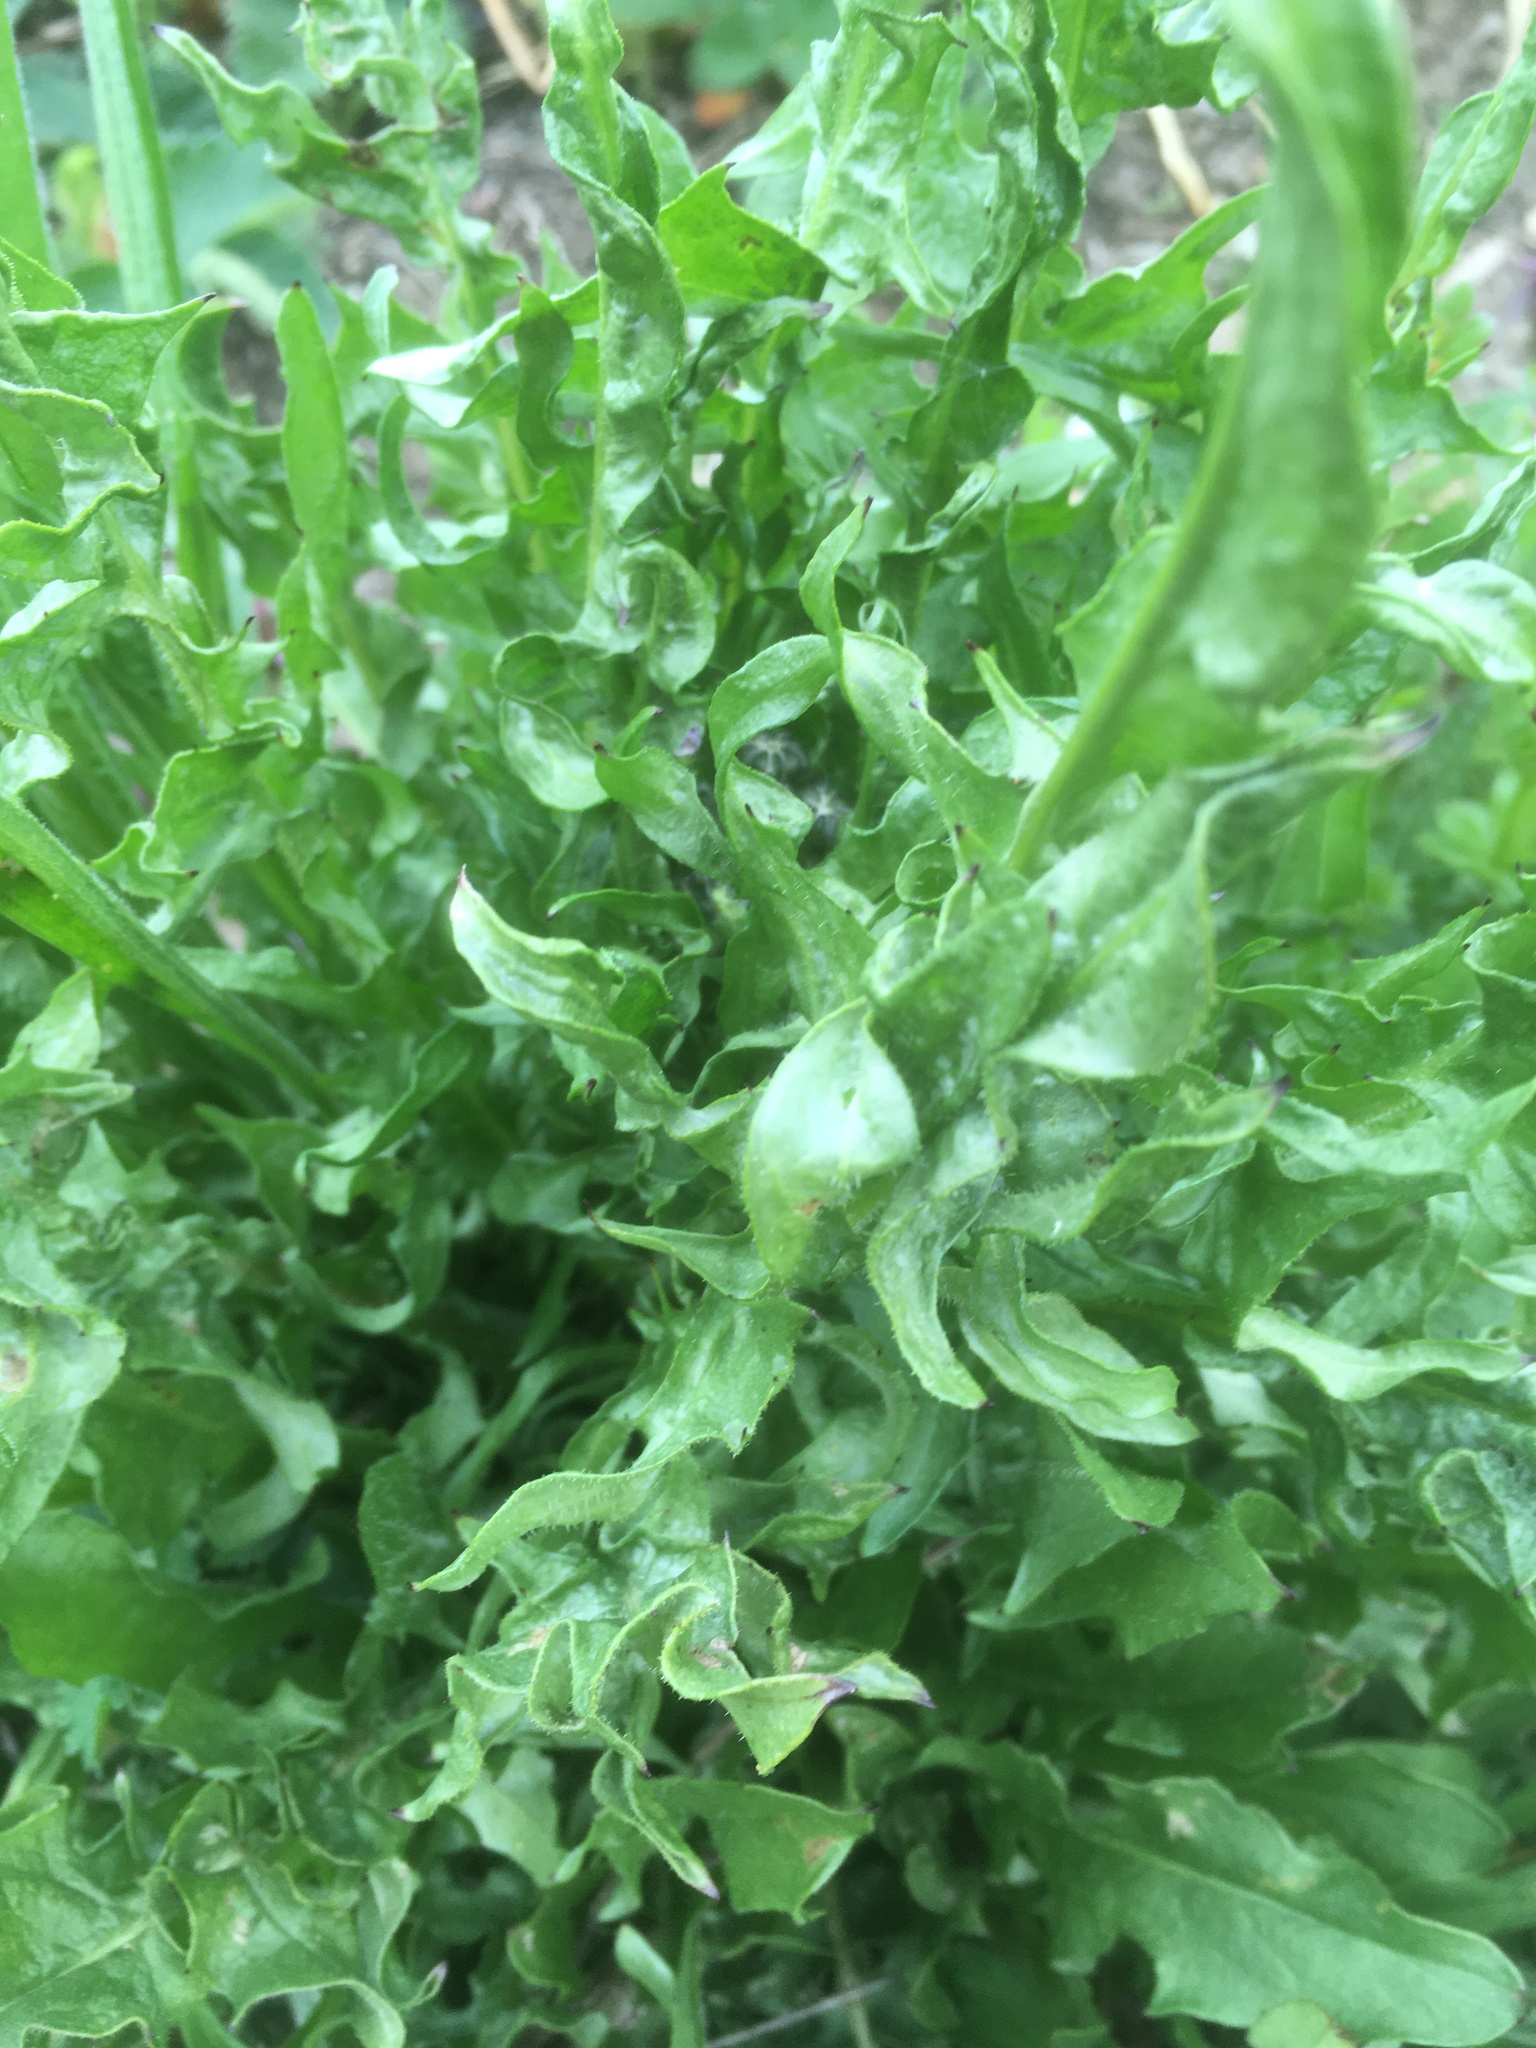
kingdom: Plantae
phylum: Tracheophyta
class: Magnoliopsida
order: Asterales
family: Asteraceae
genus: Taraxacum
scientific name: Taraxacum officinale
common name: Common dandelion
